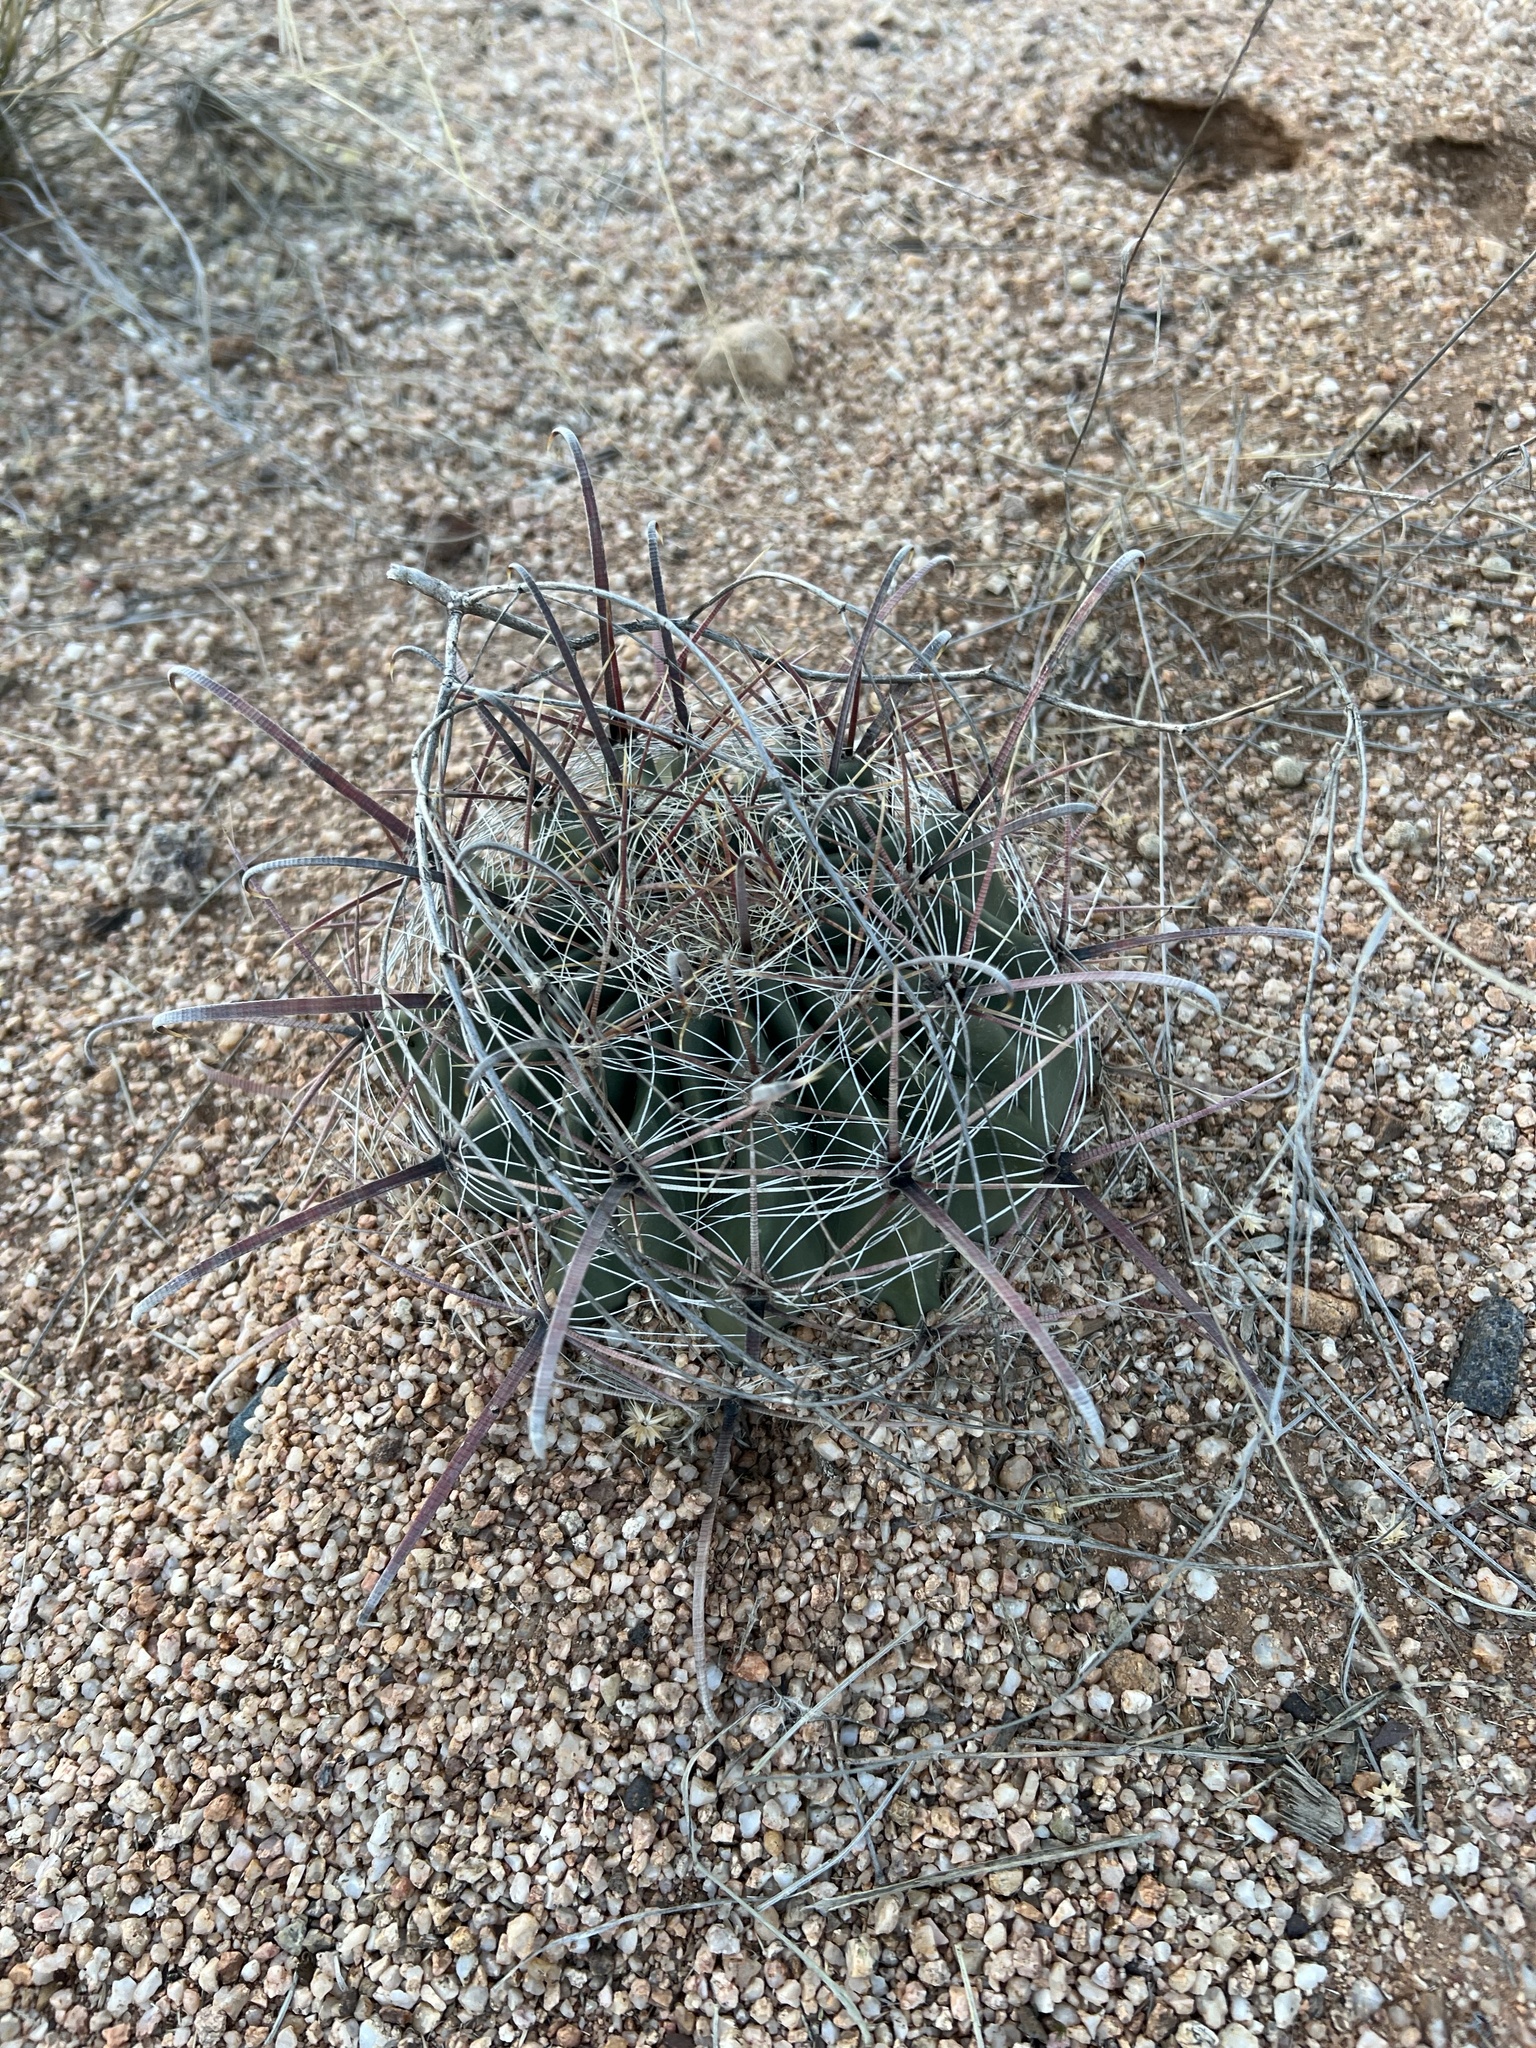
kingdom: Plantae
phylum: Tracheophyta
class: Magnoliopsida
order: Caryophyllales
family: Cactaceae
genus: Ferocactus
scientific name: Ferocactus wislizeni
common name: Candy barrel cactus
